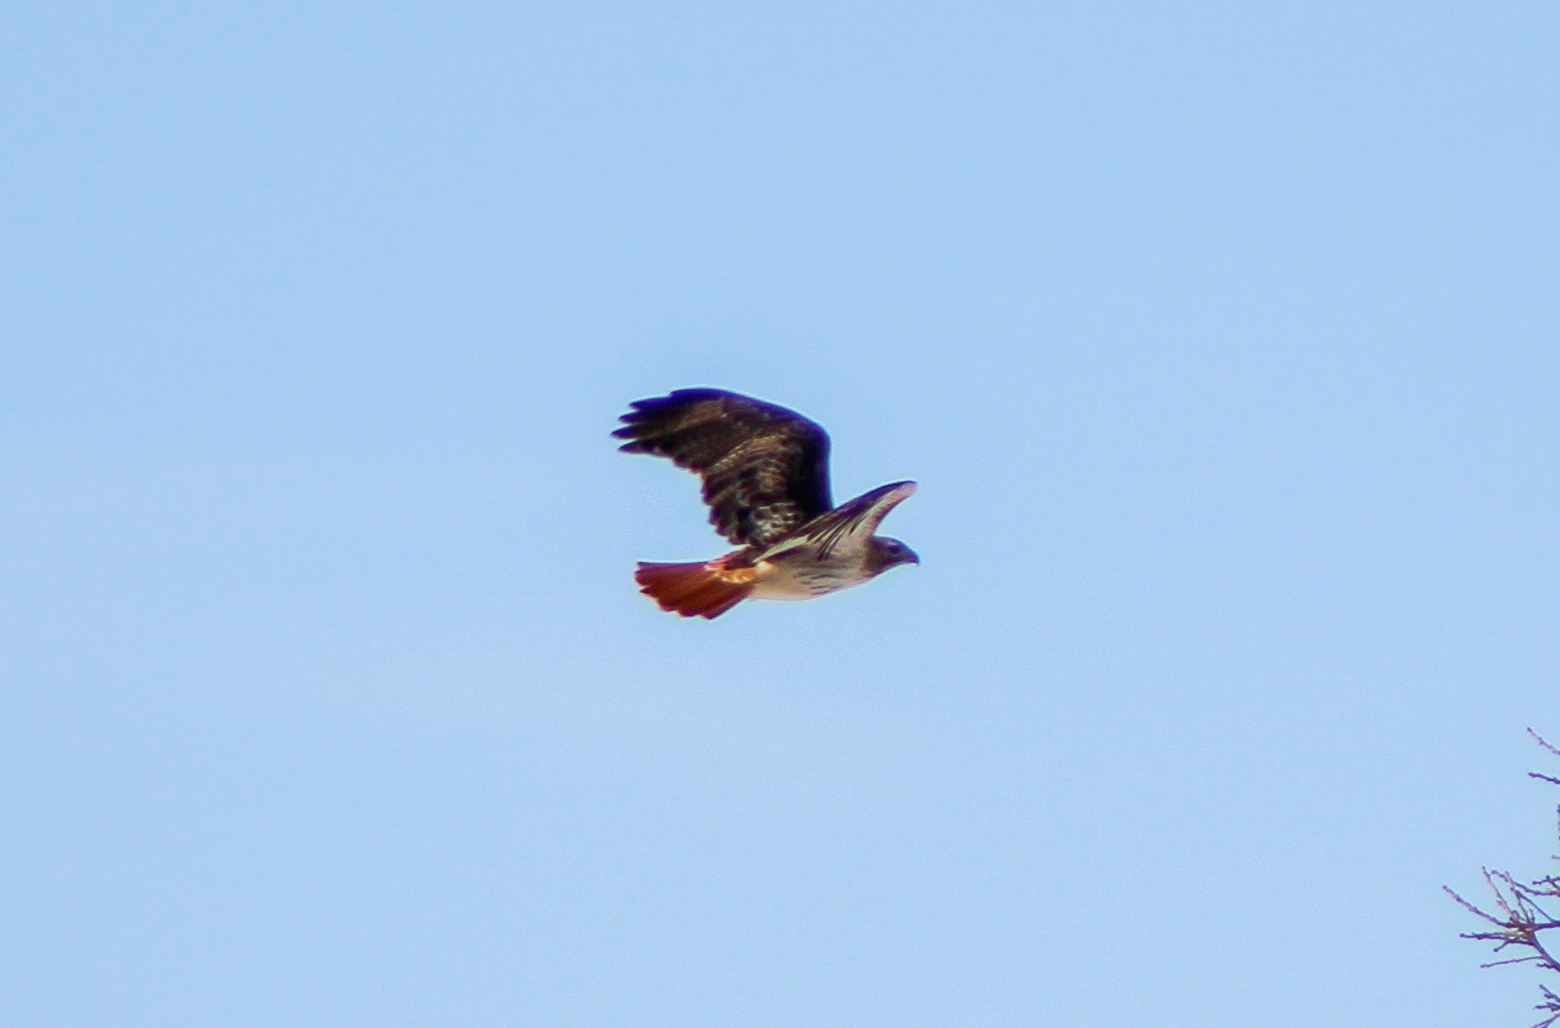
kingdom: Animalia
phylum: Chordata
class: Aves
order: Accipitriformes
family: Accipitridae
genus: Buteo
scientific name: Buteo jamaicensis
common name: Red-tailed hawk
